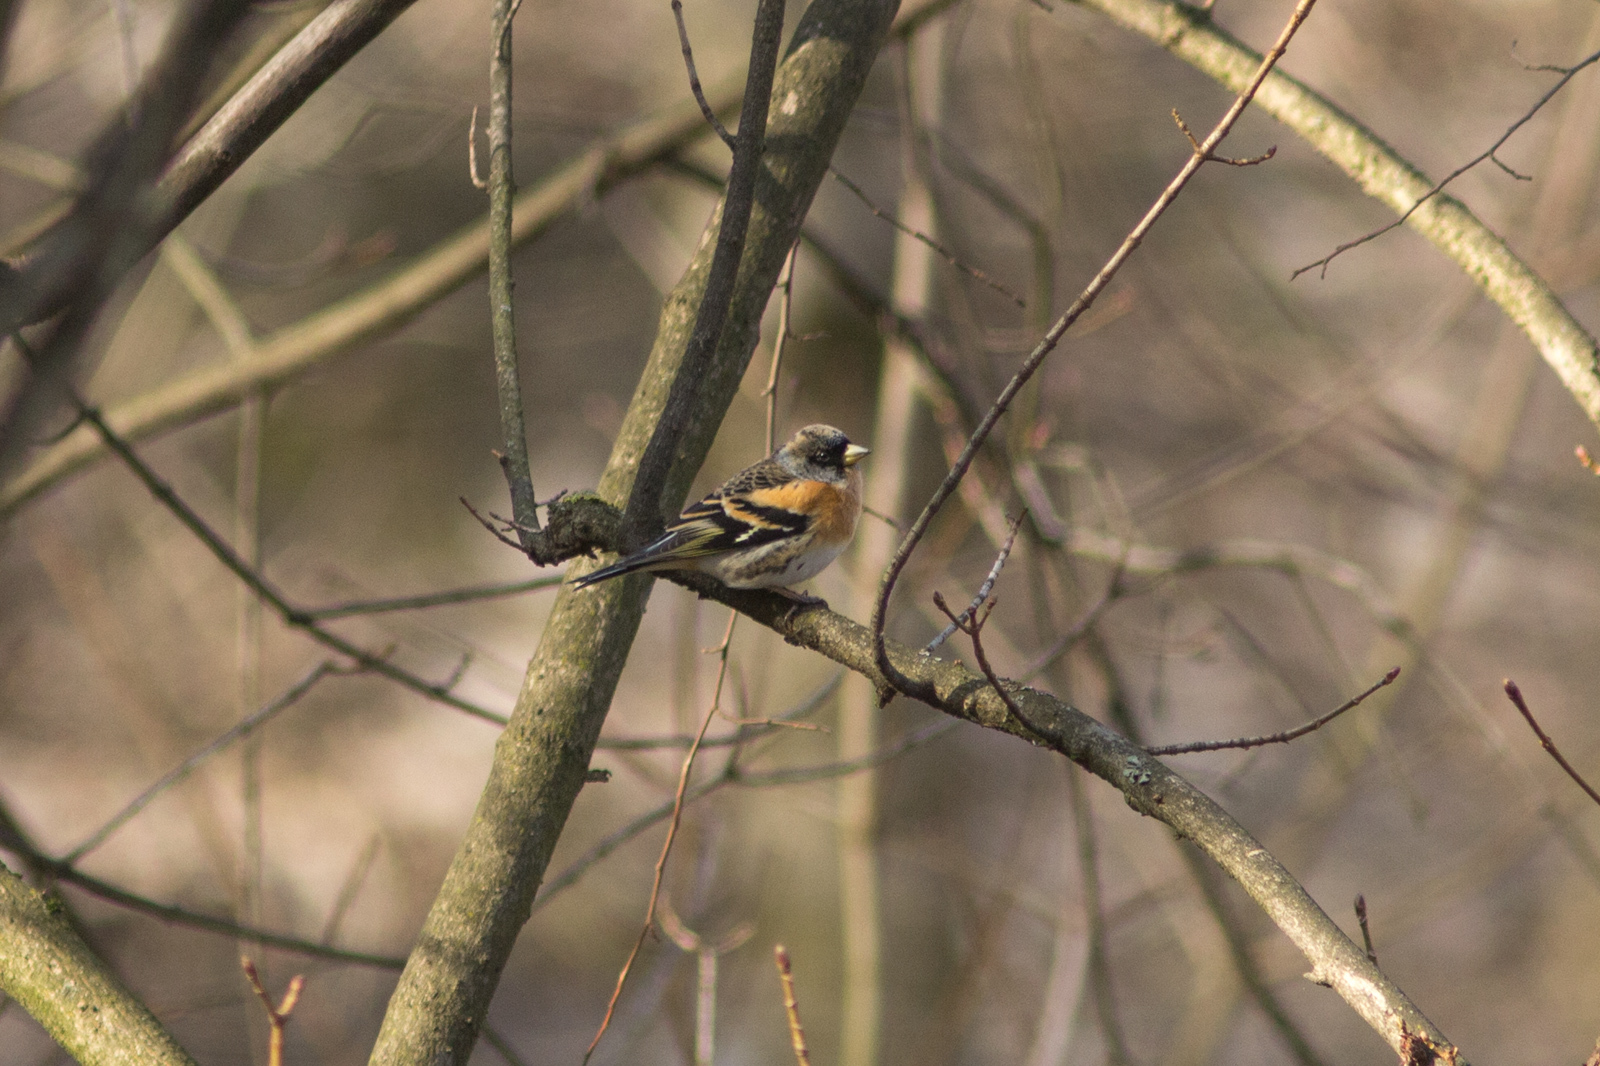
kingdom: Animalia
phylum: Chordata
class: Aves
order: Passeriformes
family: Fringillidae
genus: Fringilla
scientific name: Fringilla montifringilla
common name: Brambling
